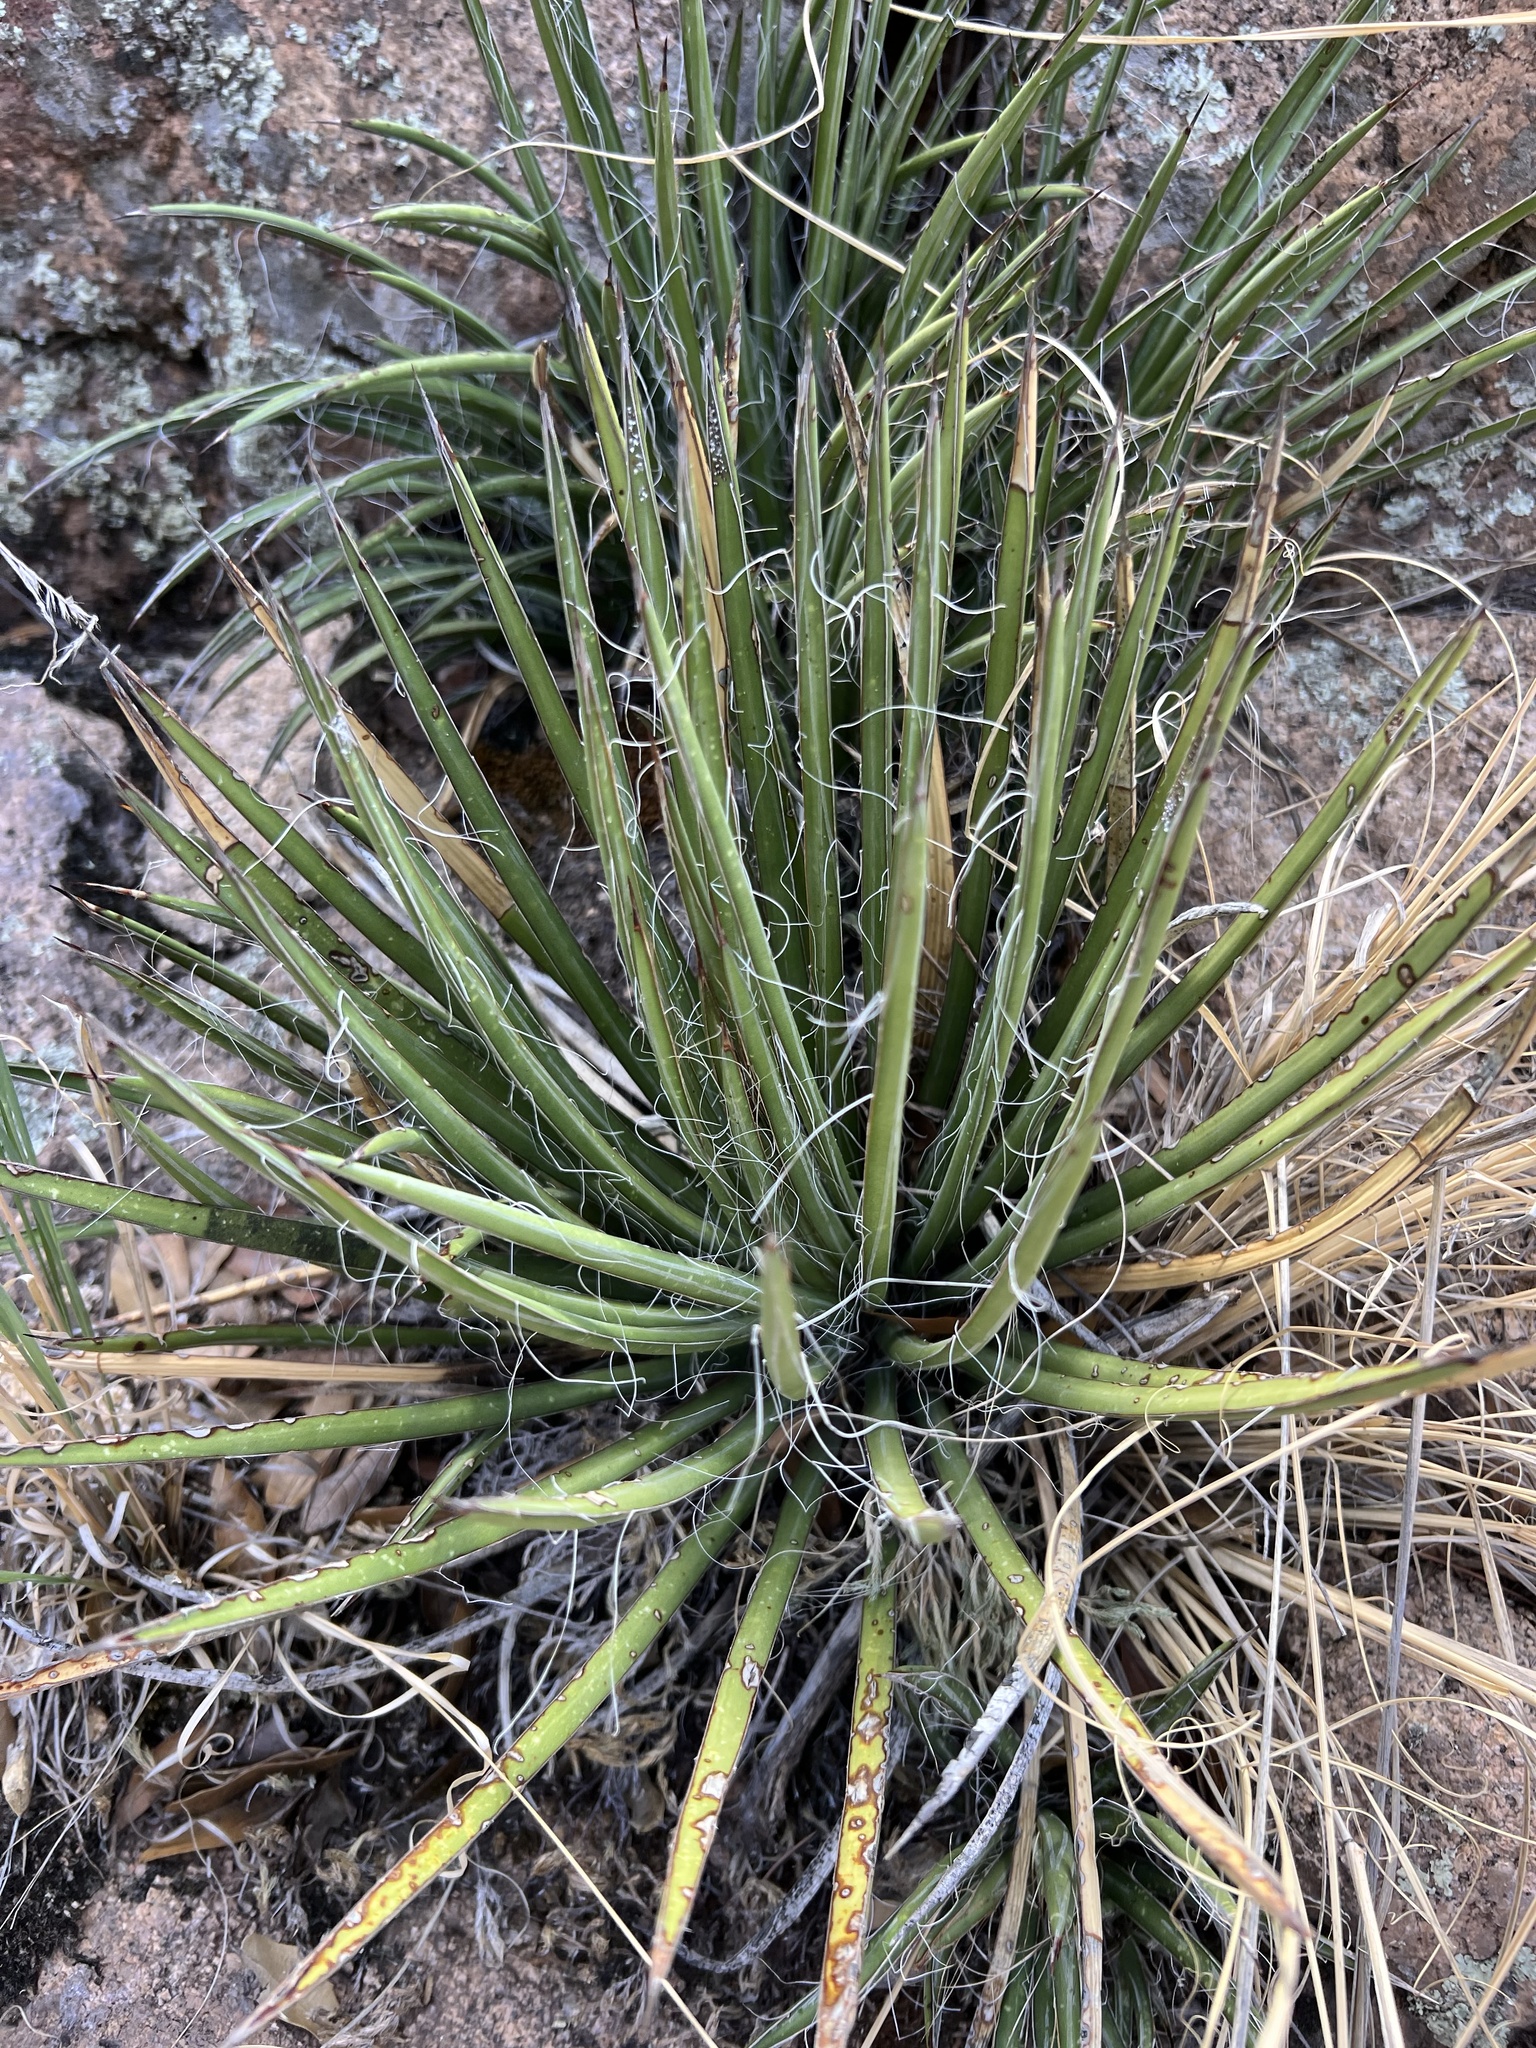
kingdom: Plantae
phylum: Tracheophyta
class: Liliopsida
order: Asparagales
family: Asparagaceae
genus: Agave
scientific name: Agave schottii
